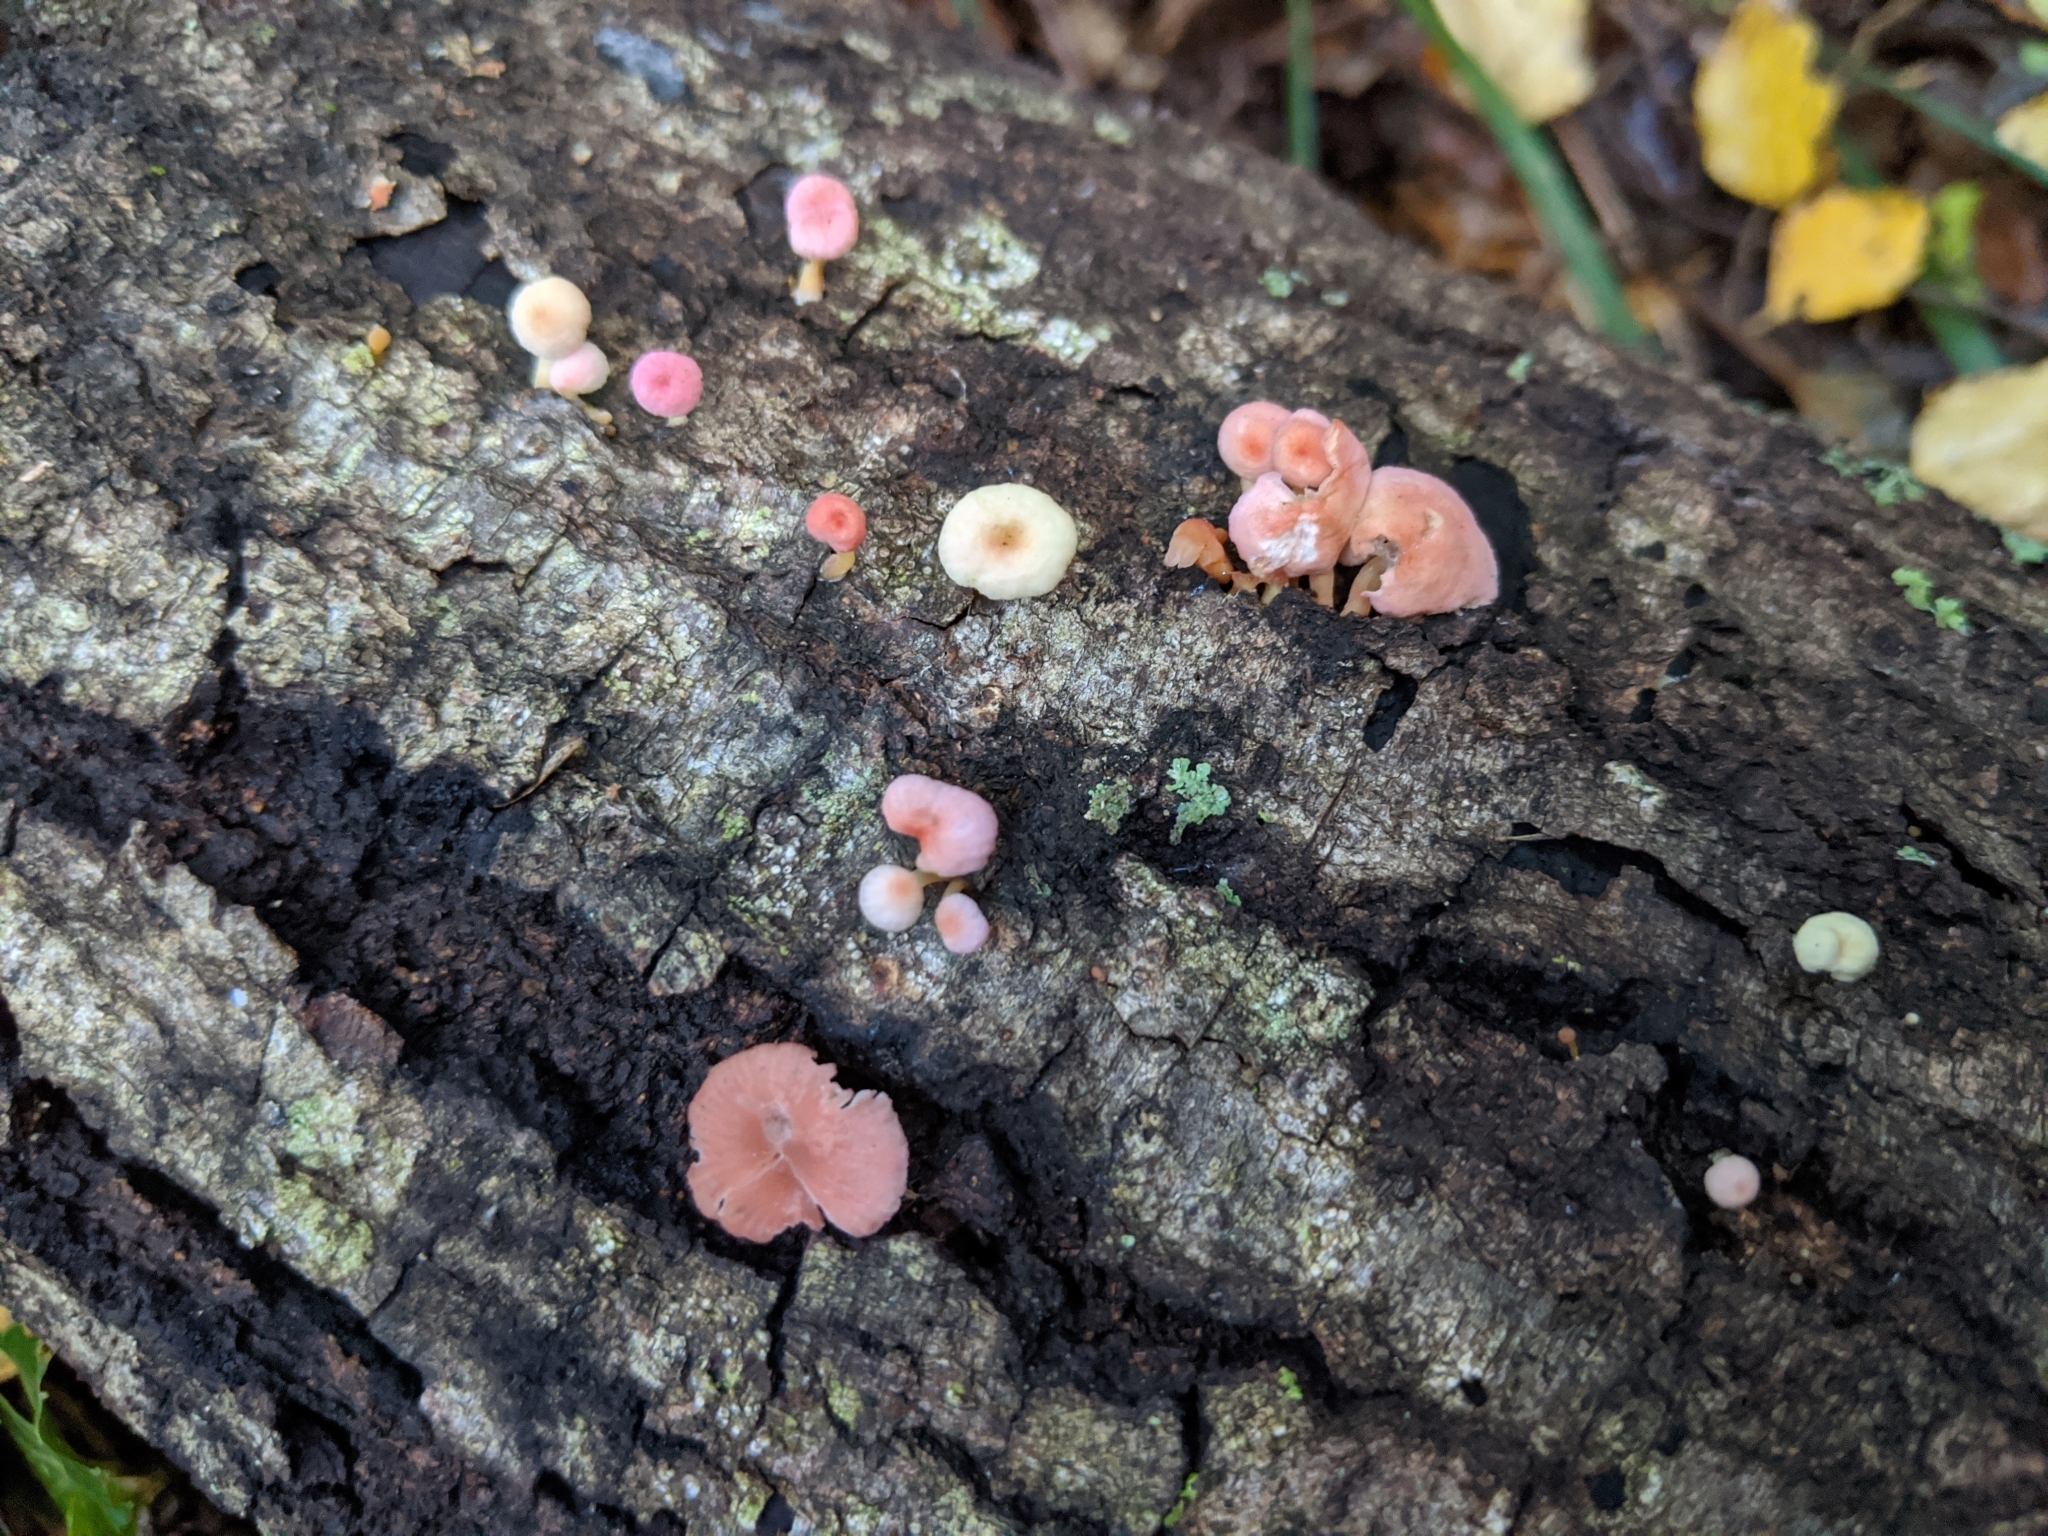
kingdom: Fungi
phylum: Basidiomycota
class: Agaricomycetes
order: Agaricales
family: Mycenaceae
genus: Mycena
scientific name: Mycena roseoflava
